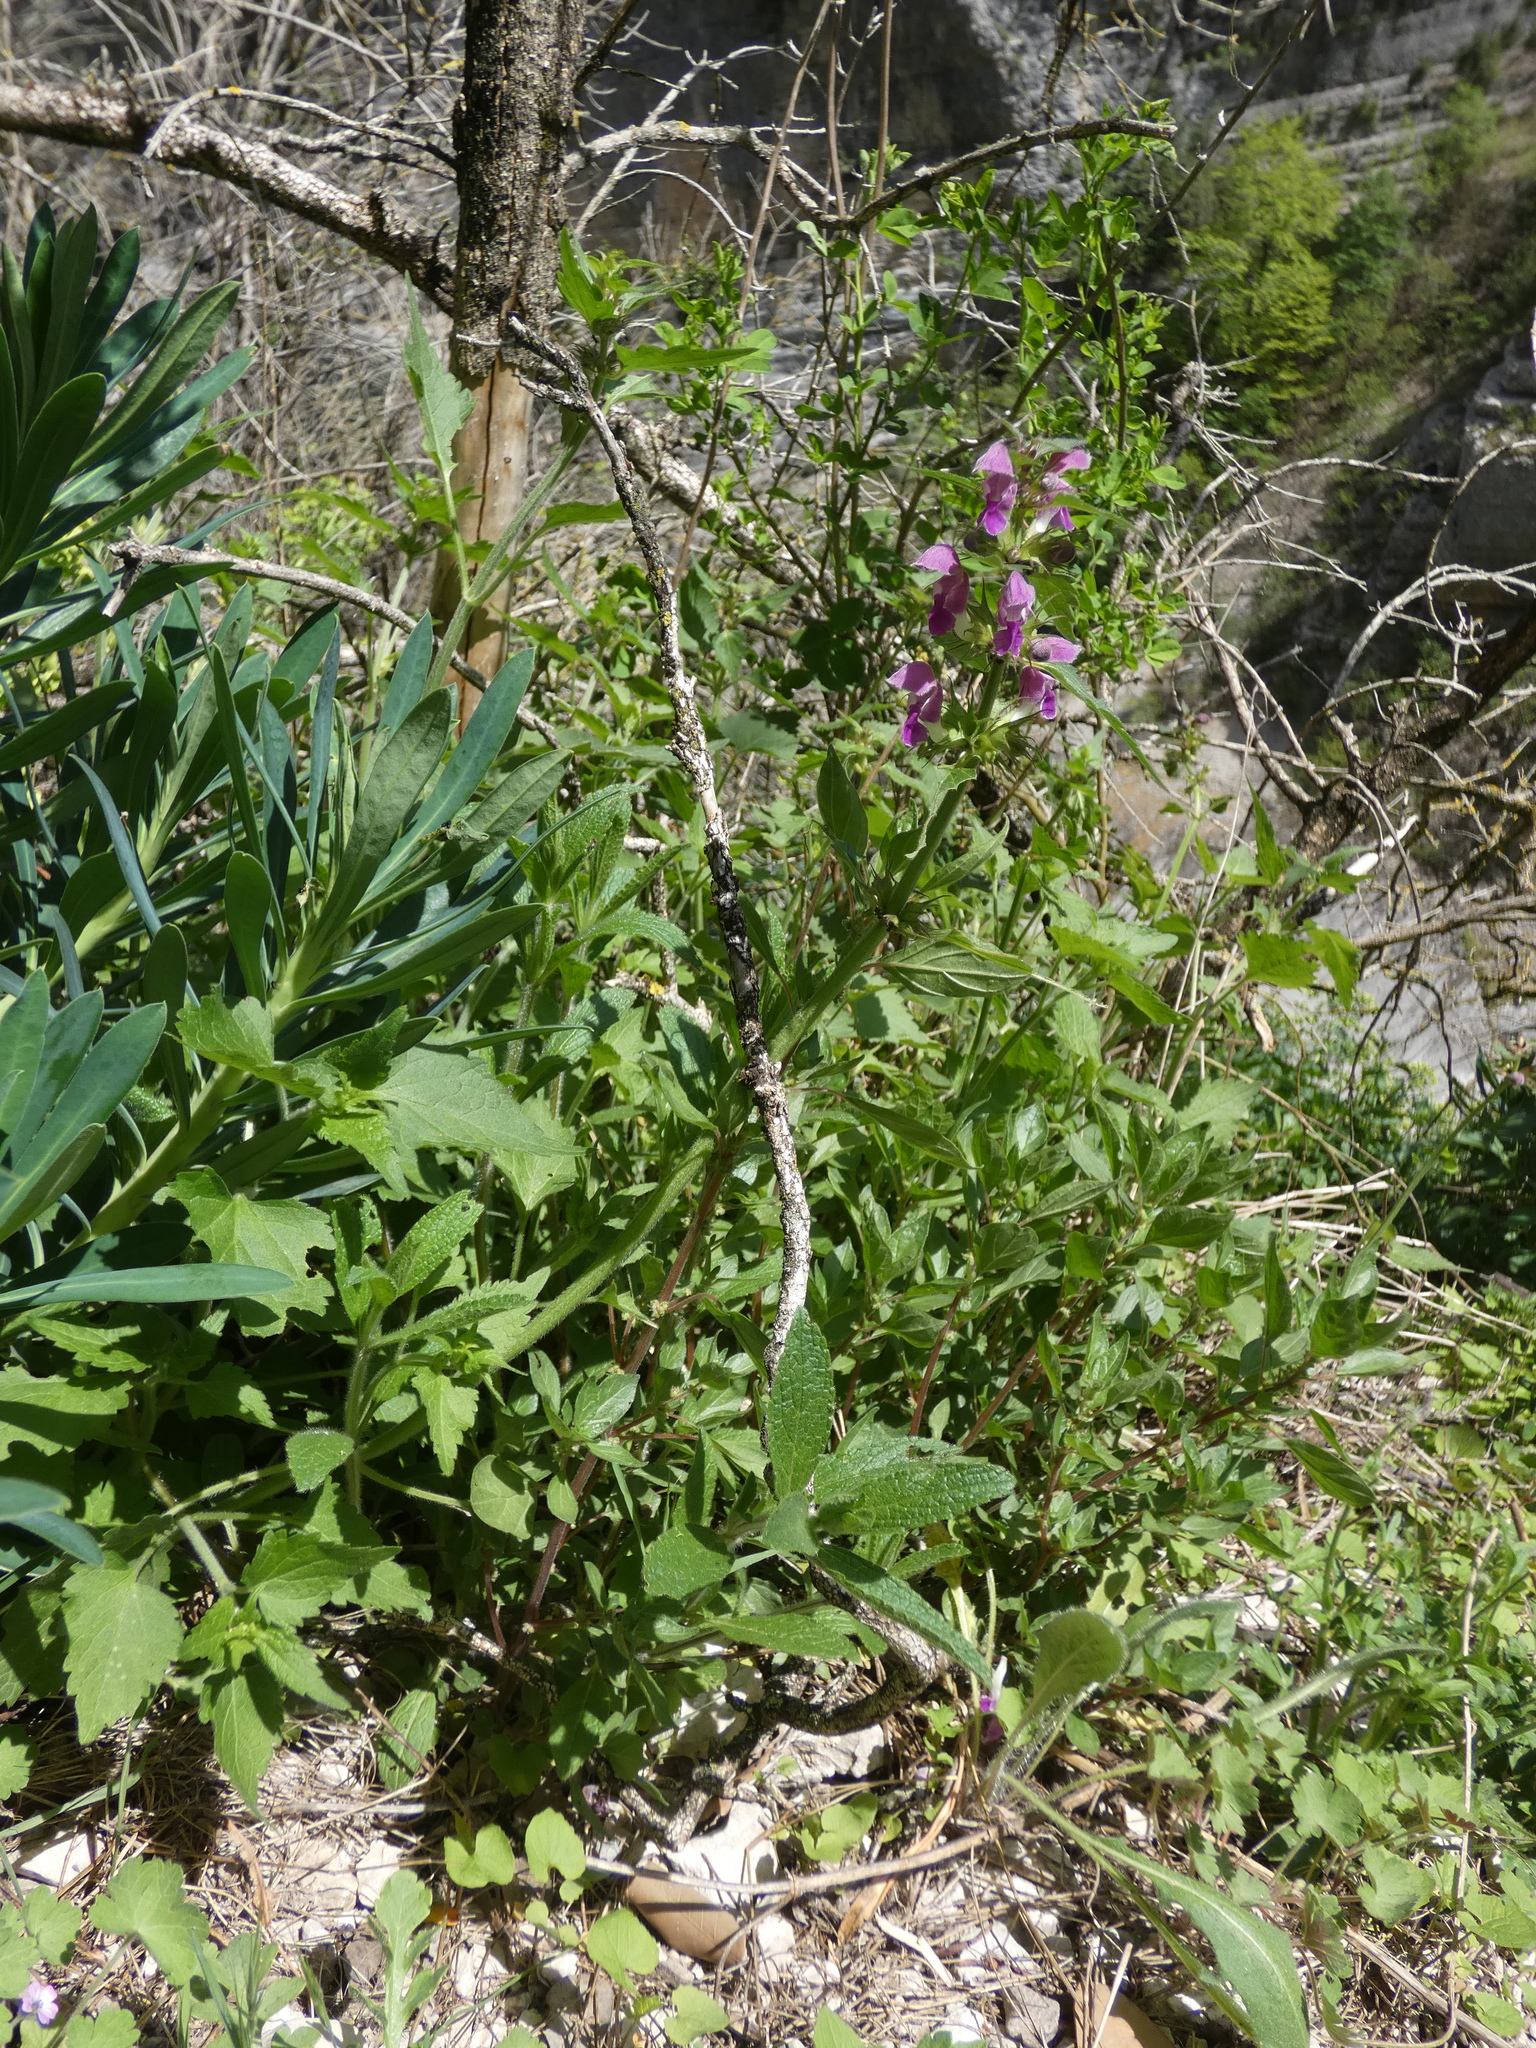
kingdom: Plantae
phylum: Tracheophyta
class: Magnoliopsida
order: Lamiales
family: Lamiaceae
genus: Lamium
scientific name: Lamium maculatum
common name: Spotted dead-nettle
